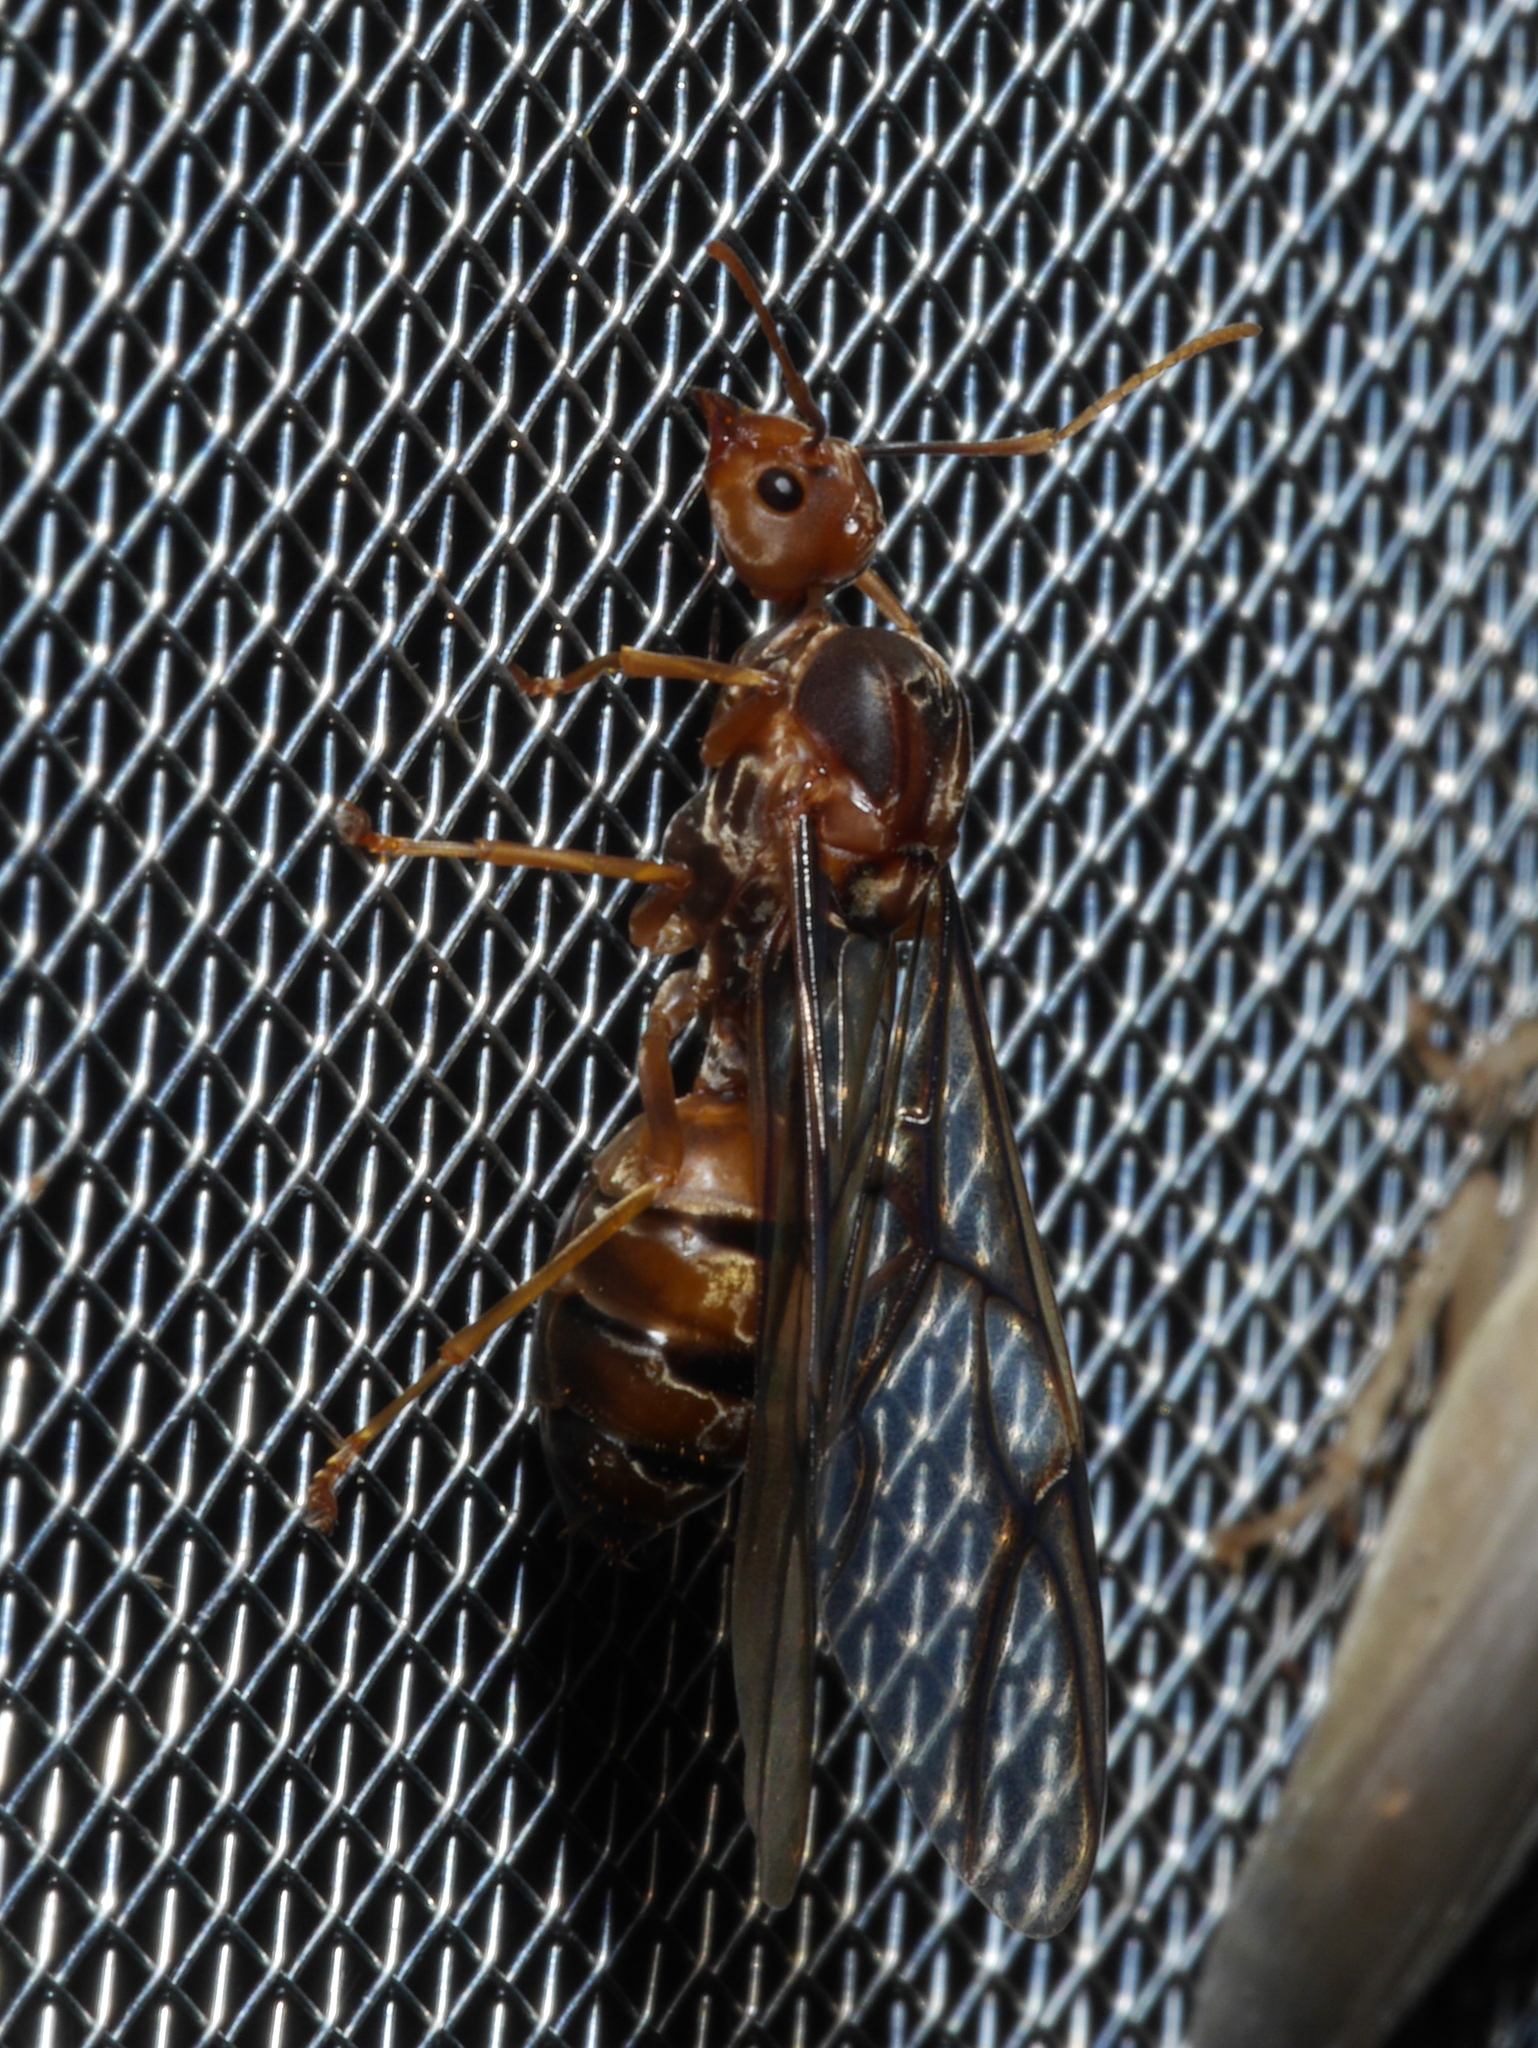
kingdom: Animalia
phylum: Arthropoda
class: Insecta
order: Hymenoptera
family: Formicidae
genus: Oecophylla
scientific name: Oecophylla longinoda
